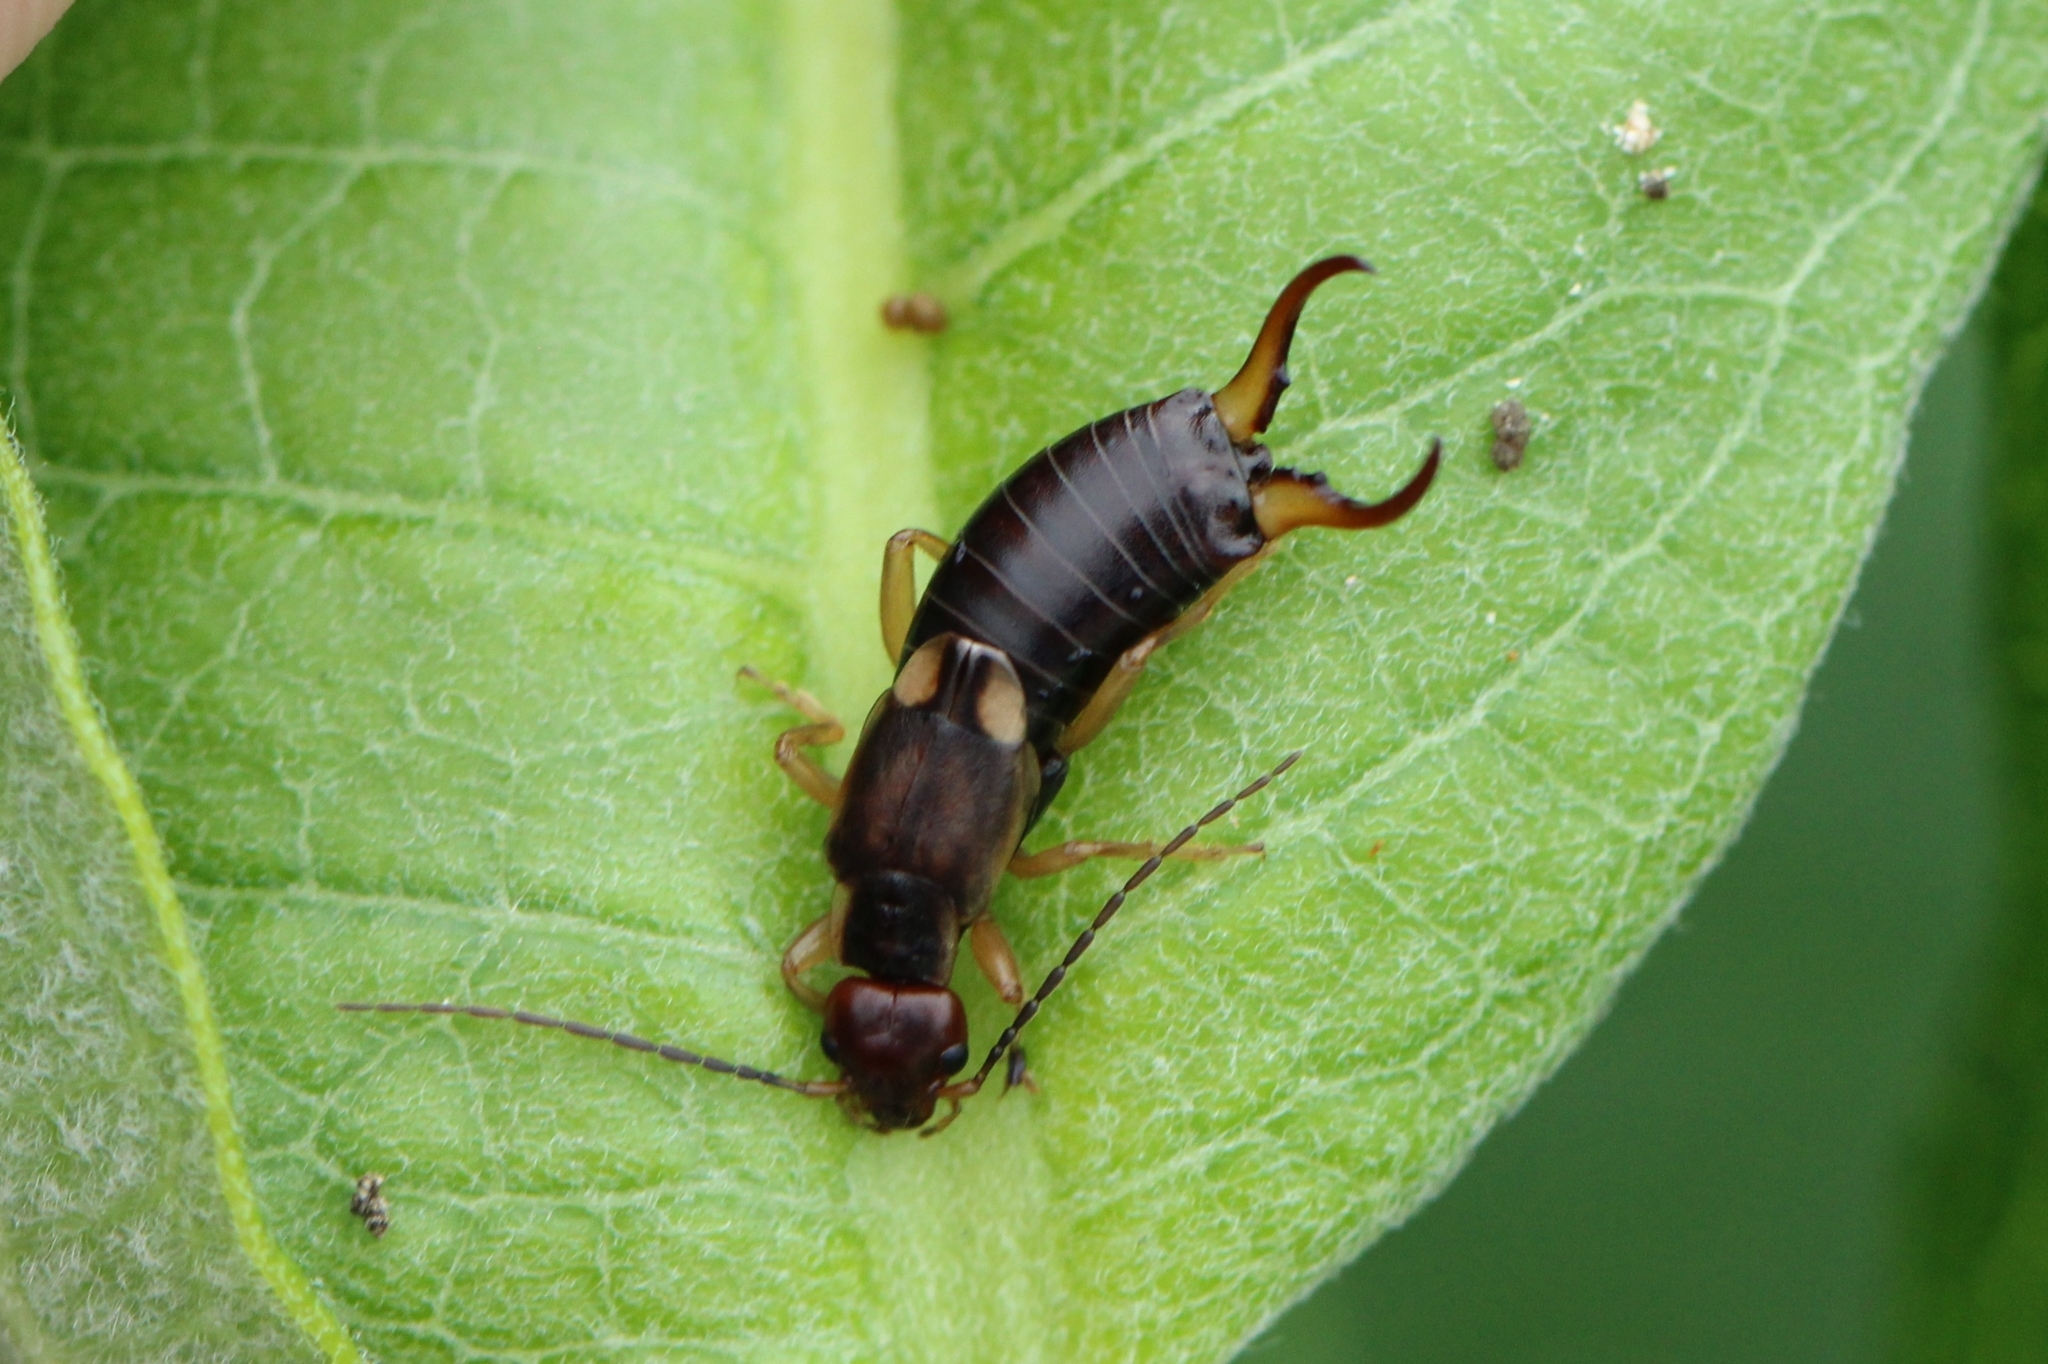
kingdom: Animalia
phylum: Arthropoda
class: Insecta
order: Dermaptera
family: Forficulidae
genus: Forficula
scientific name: Forficula
